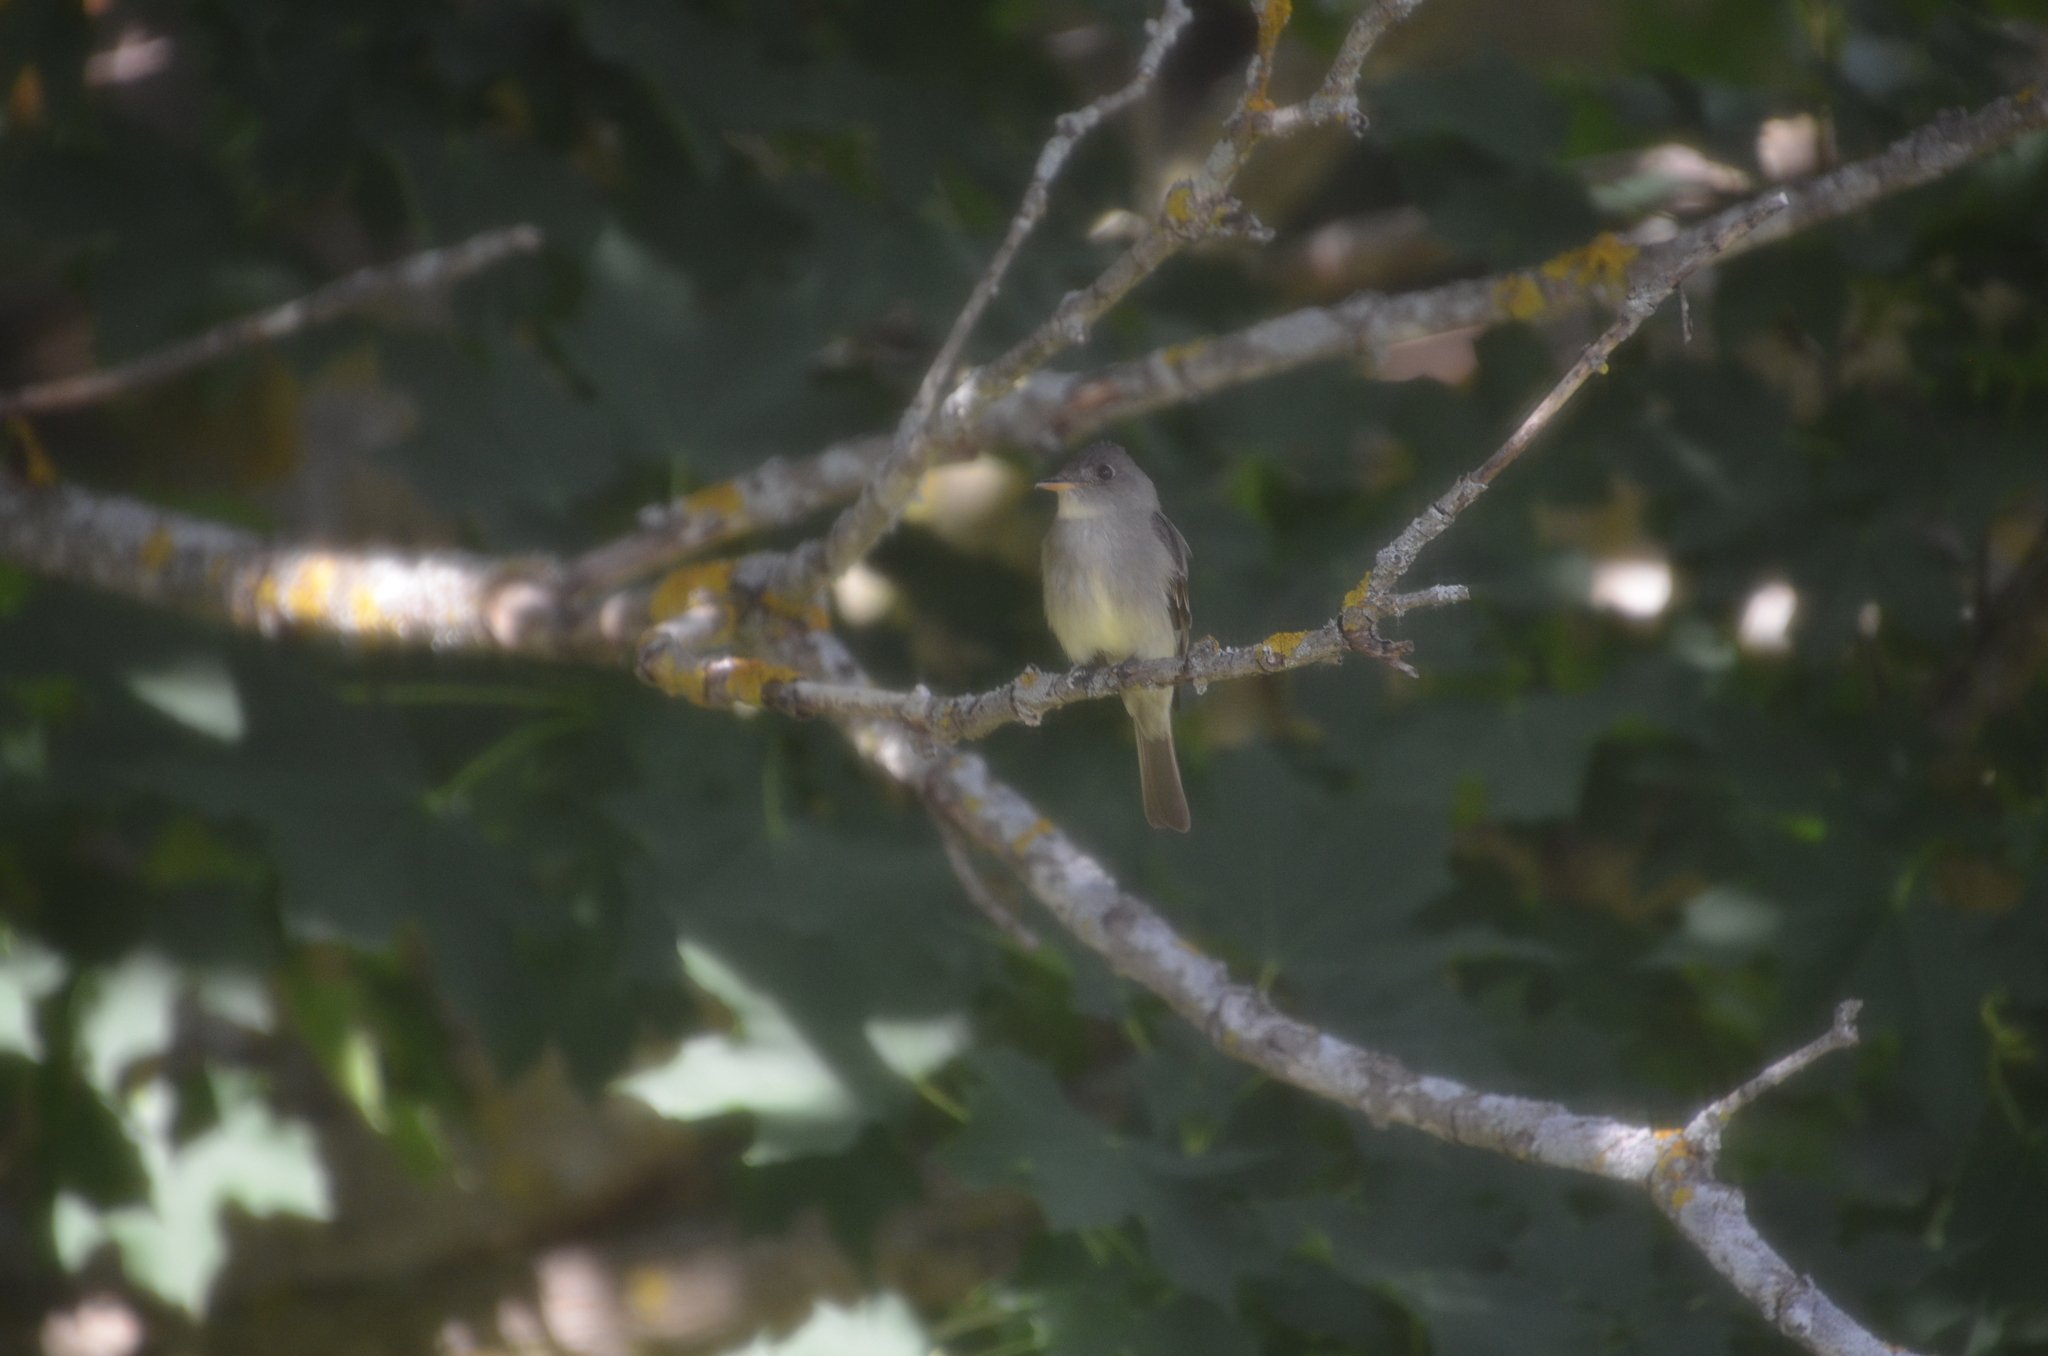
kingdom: Animalia
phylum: Chordata
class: Aves
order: Passeriformes
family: Tyrannidae
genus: Contopus
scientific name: Contopus virens
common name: Eastern wood-pewee
